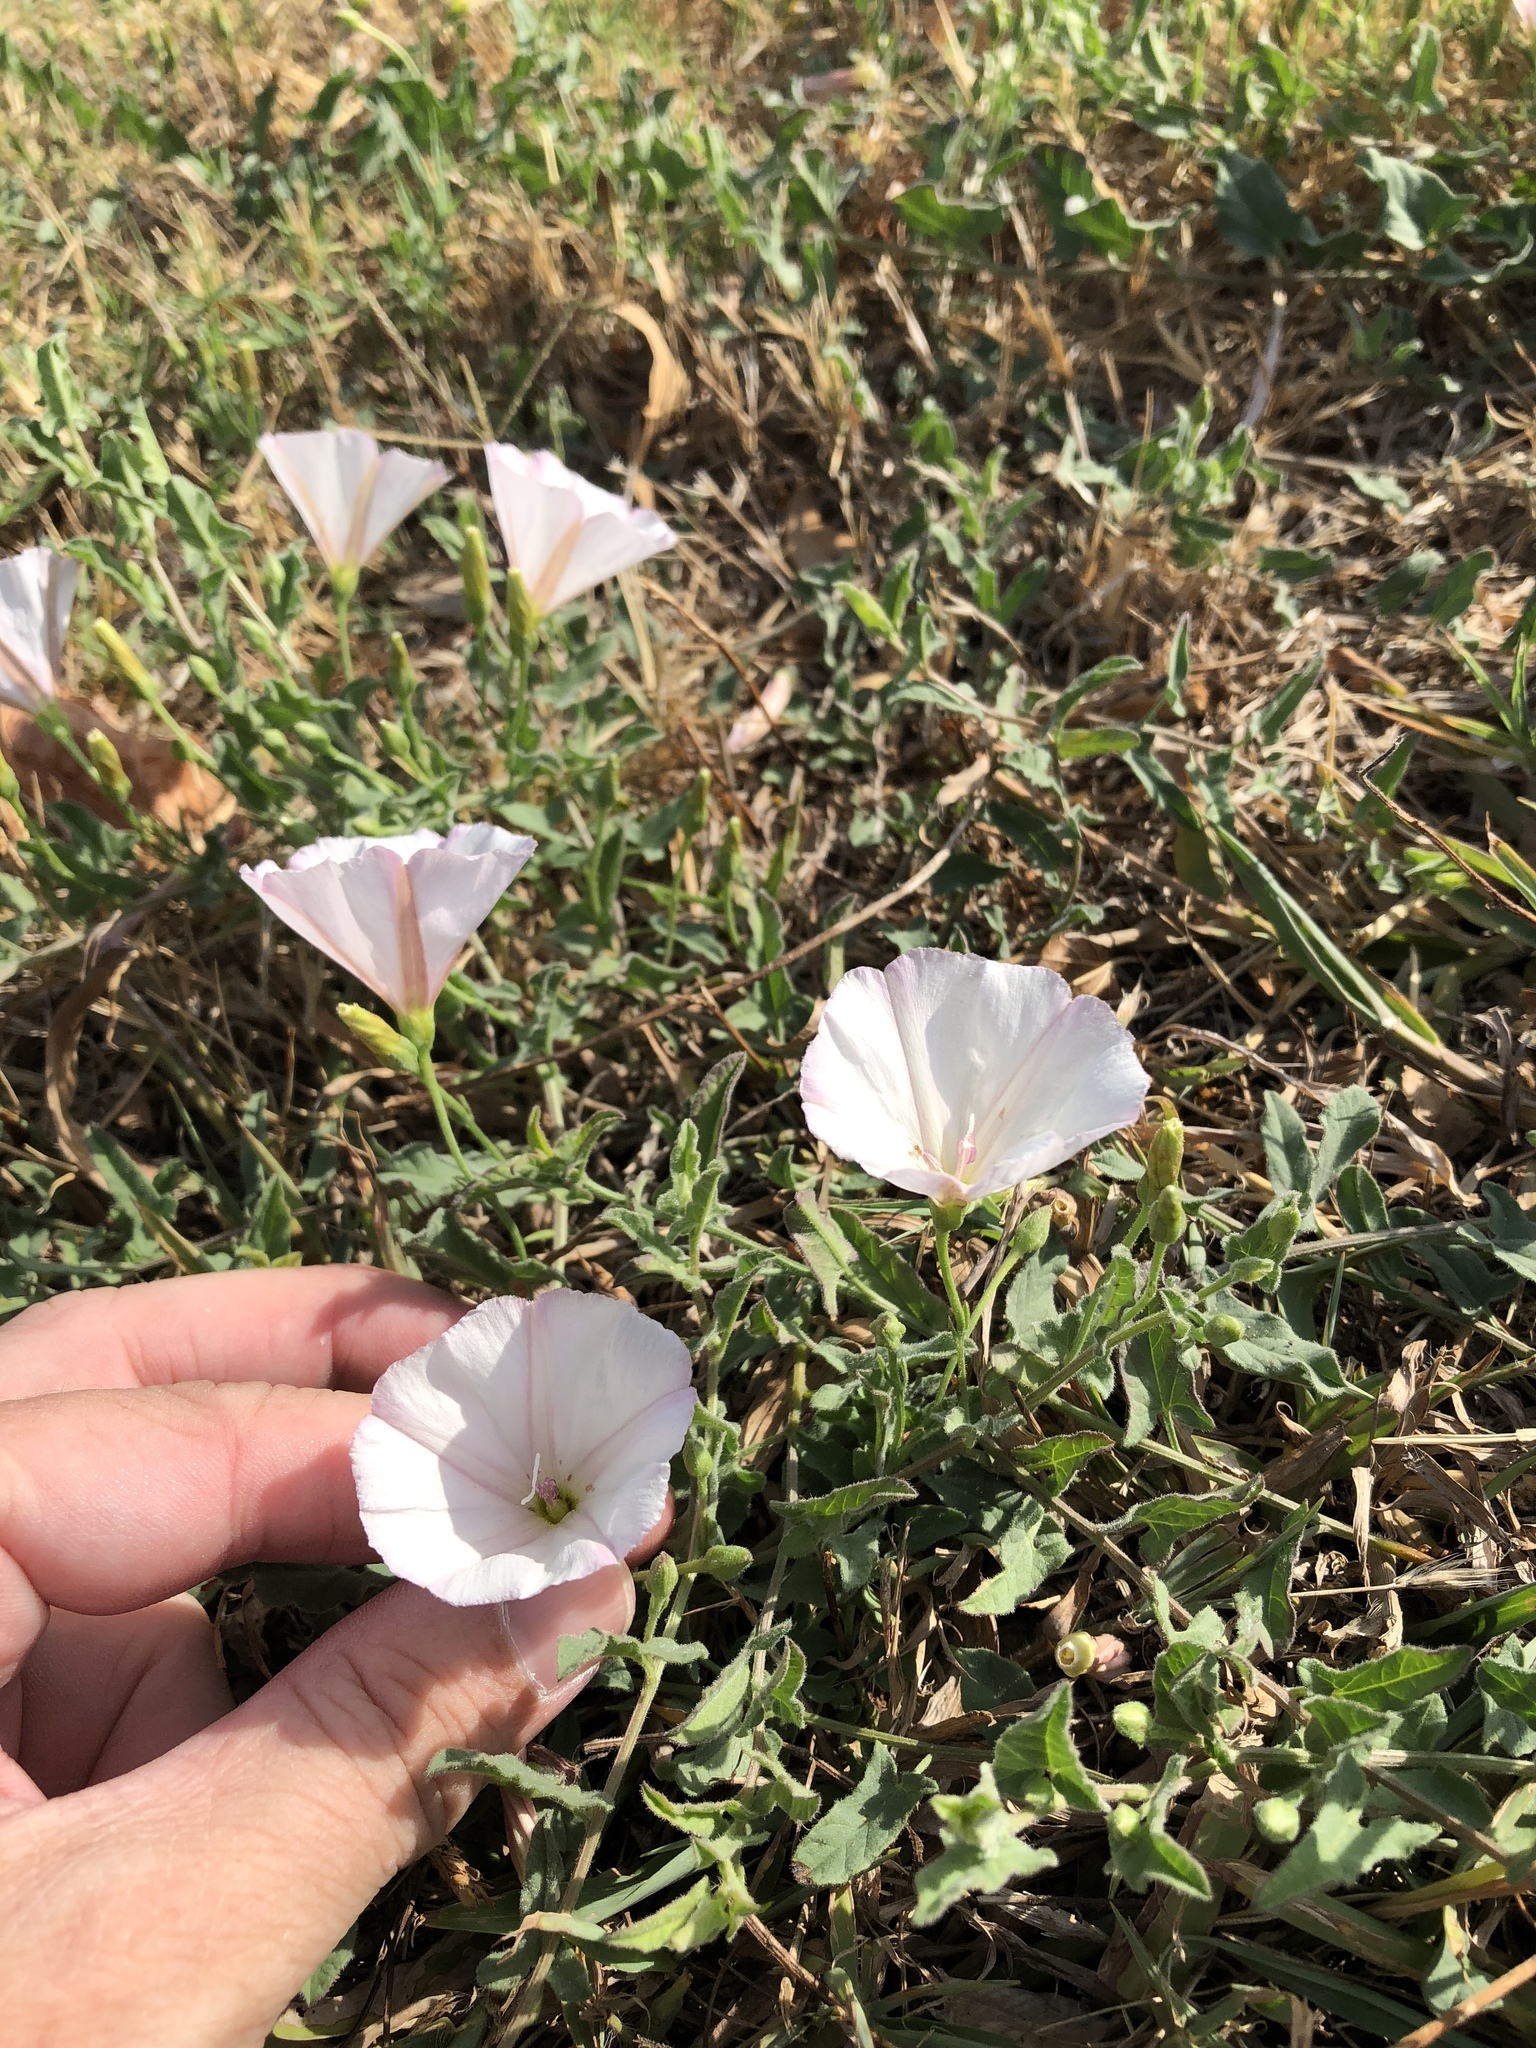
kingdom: Plantae
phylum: Tracheophyta
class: Magnoliopsida
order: Solanales
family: Convolvulaceae
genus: Convolvulus
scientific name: Convolvulus arvensis
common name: Field bindweed
